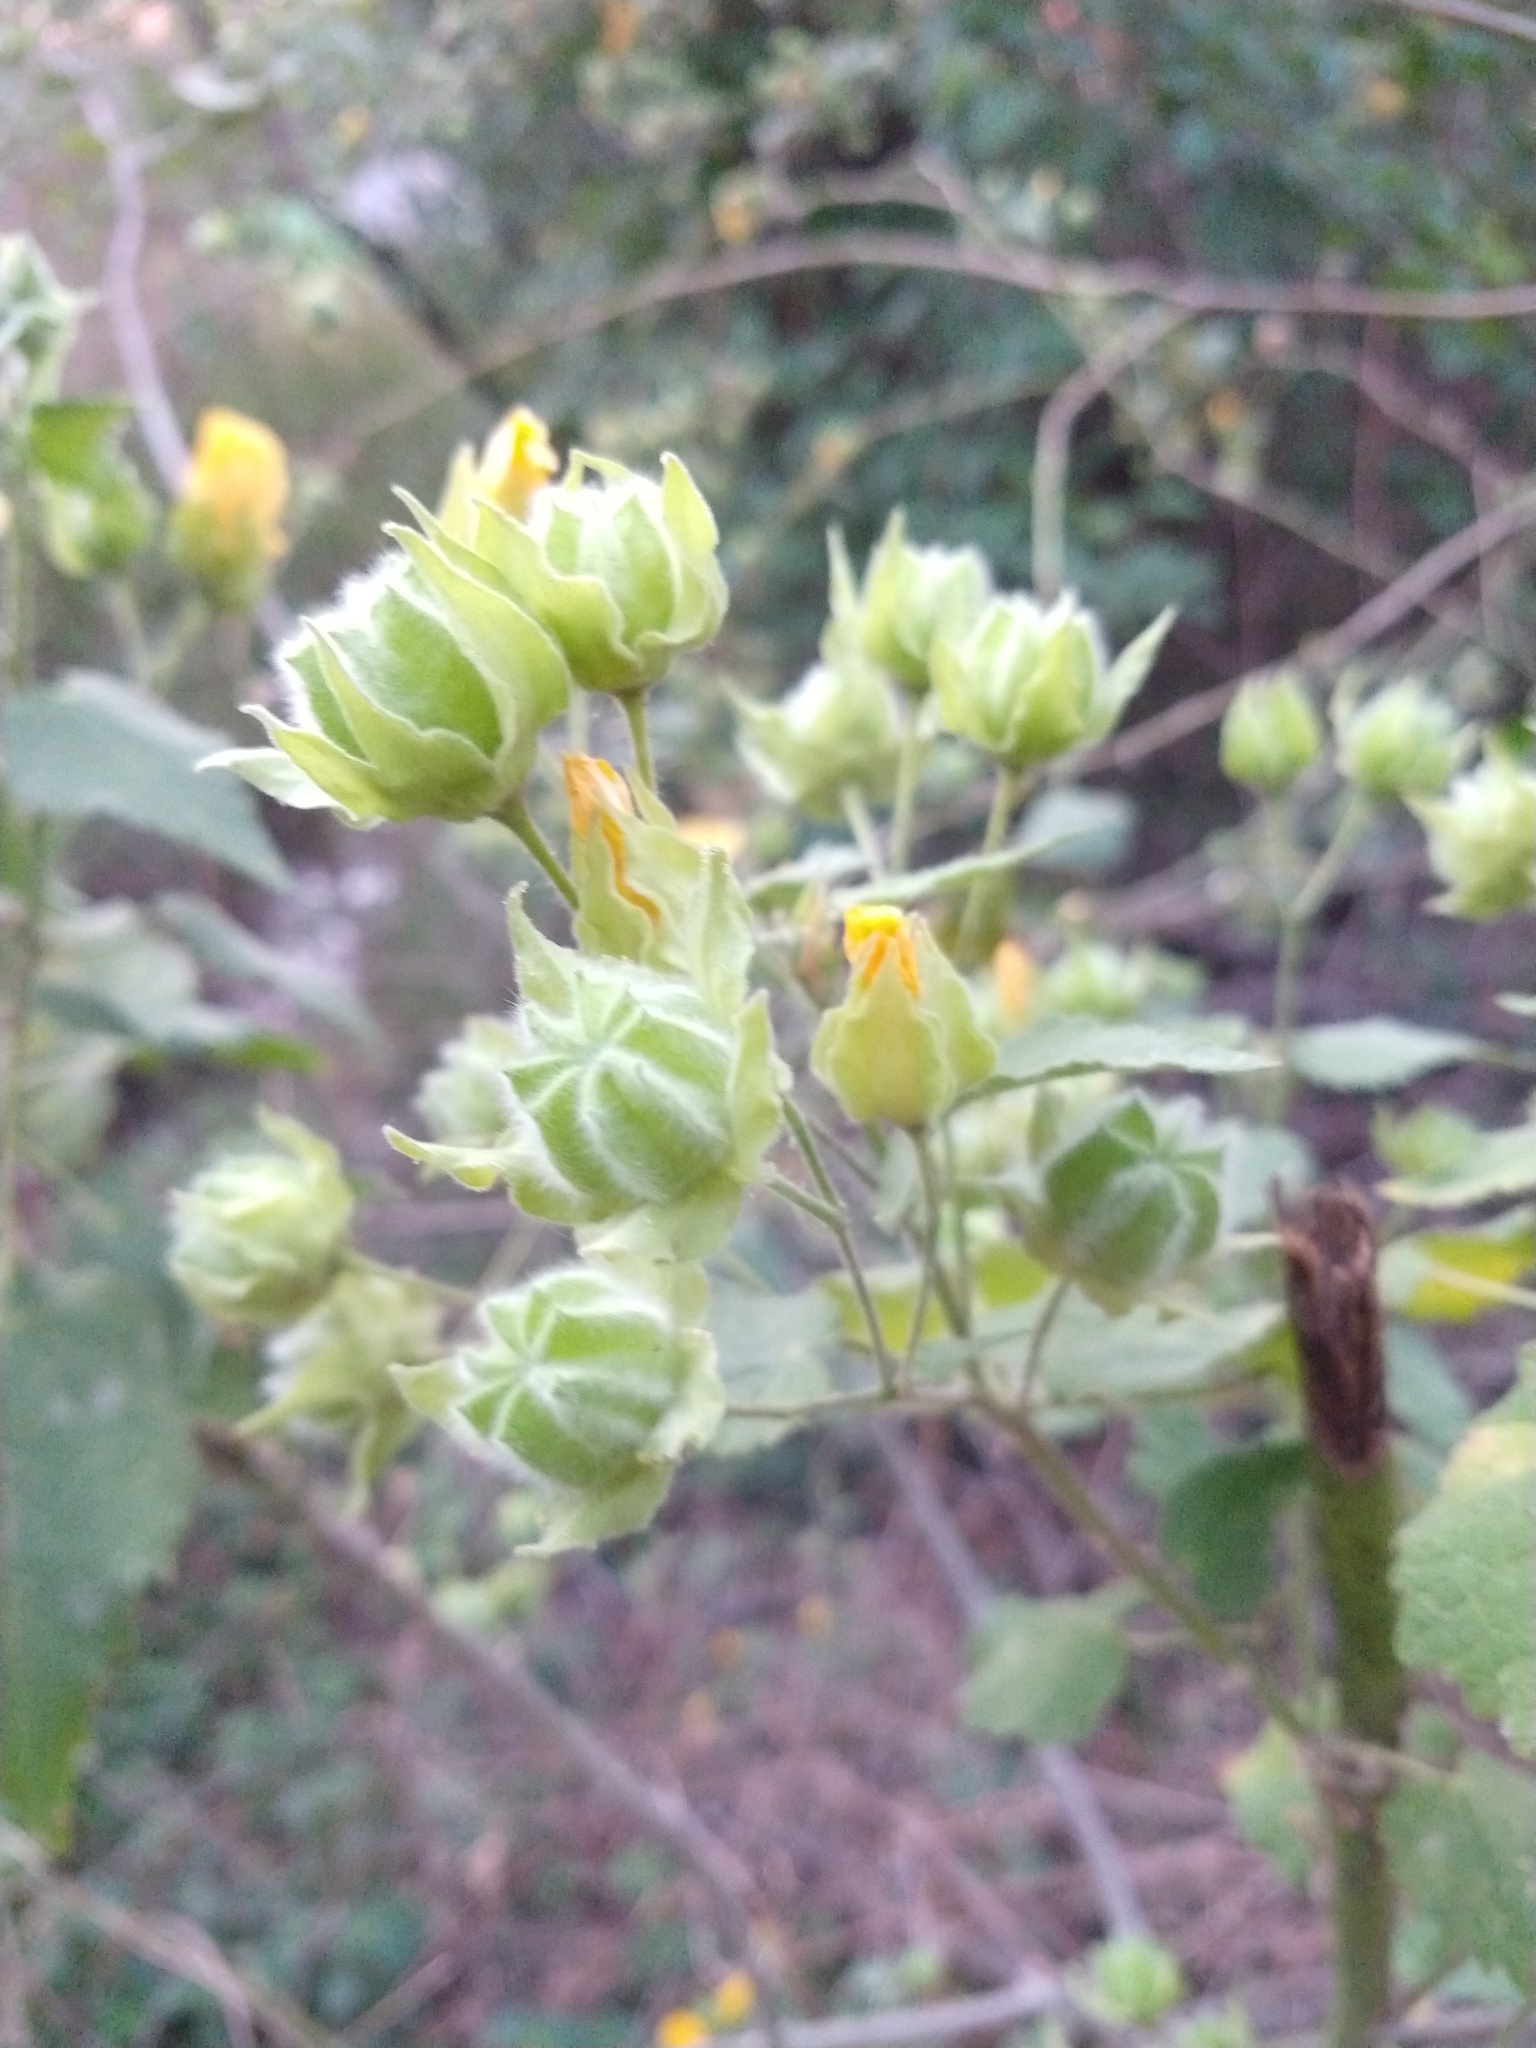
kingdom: Plantae
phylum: Tracheophyta
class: Magnoliopsida
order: Malvales
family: Malvaceae
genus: Abutilon
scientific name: Abutilon grandifolium
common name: Hairy abutilon
